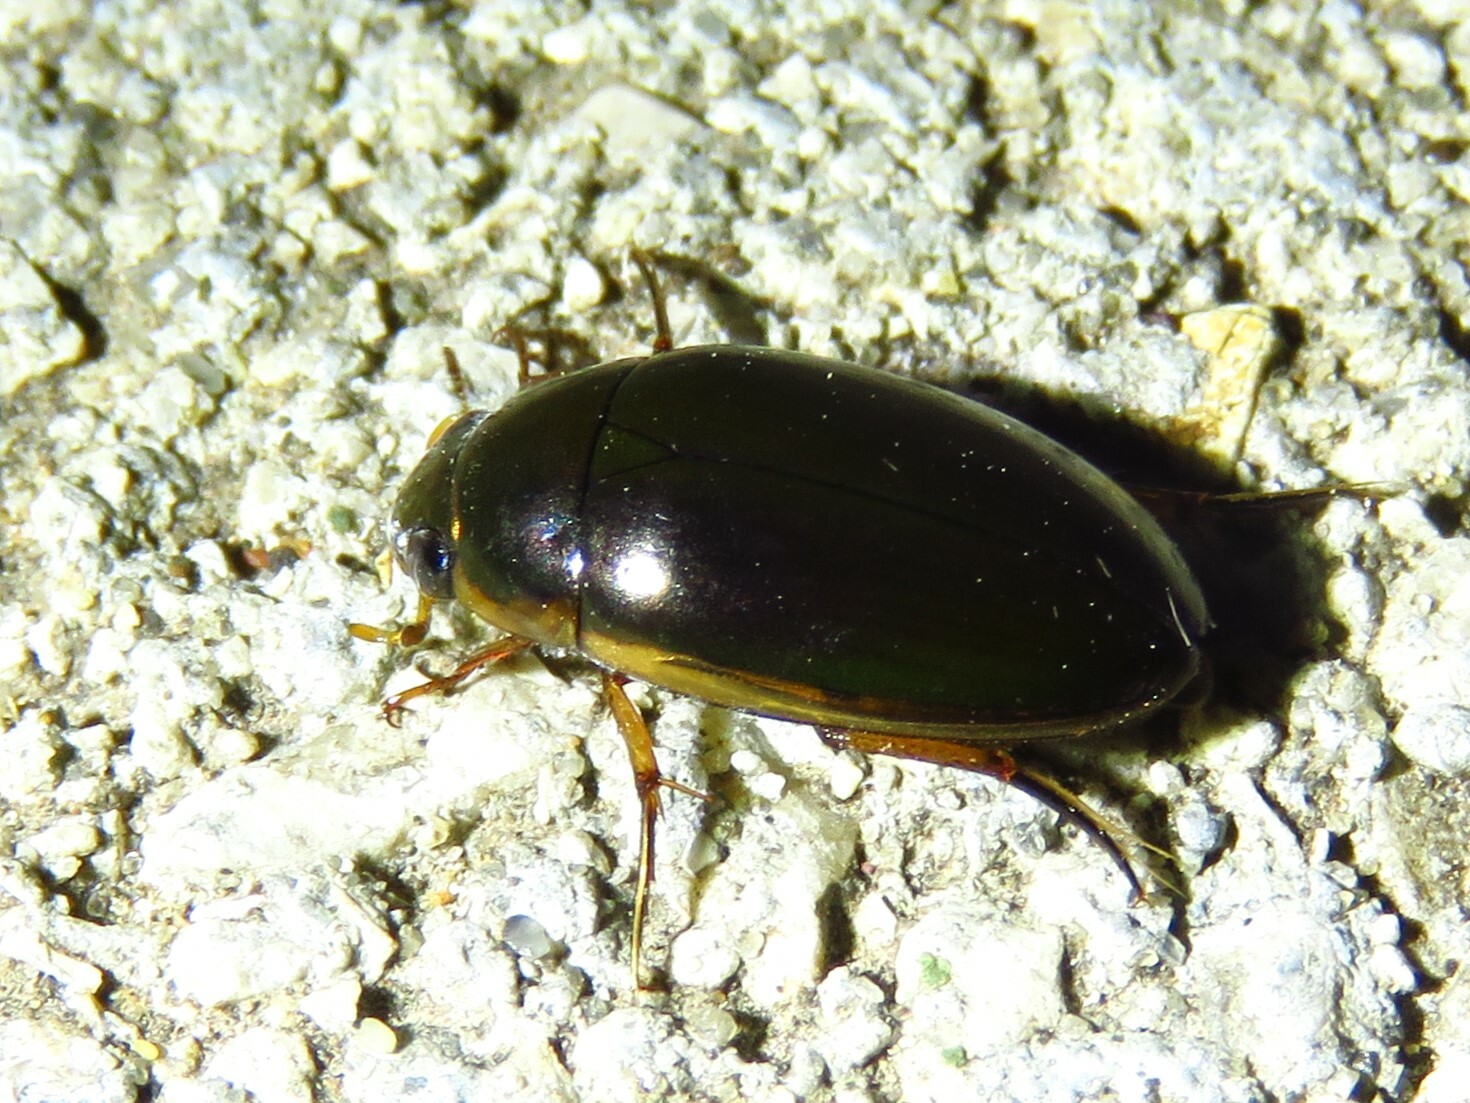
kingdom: Animalia
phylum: Arthropoda
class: Insecta
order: Coleoptera
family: Hydrophilidae
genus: Tropisternus
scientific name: Tropisternus lateralis
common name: Lateral-banded water scavenger beetle
